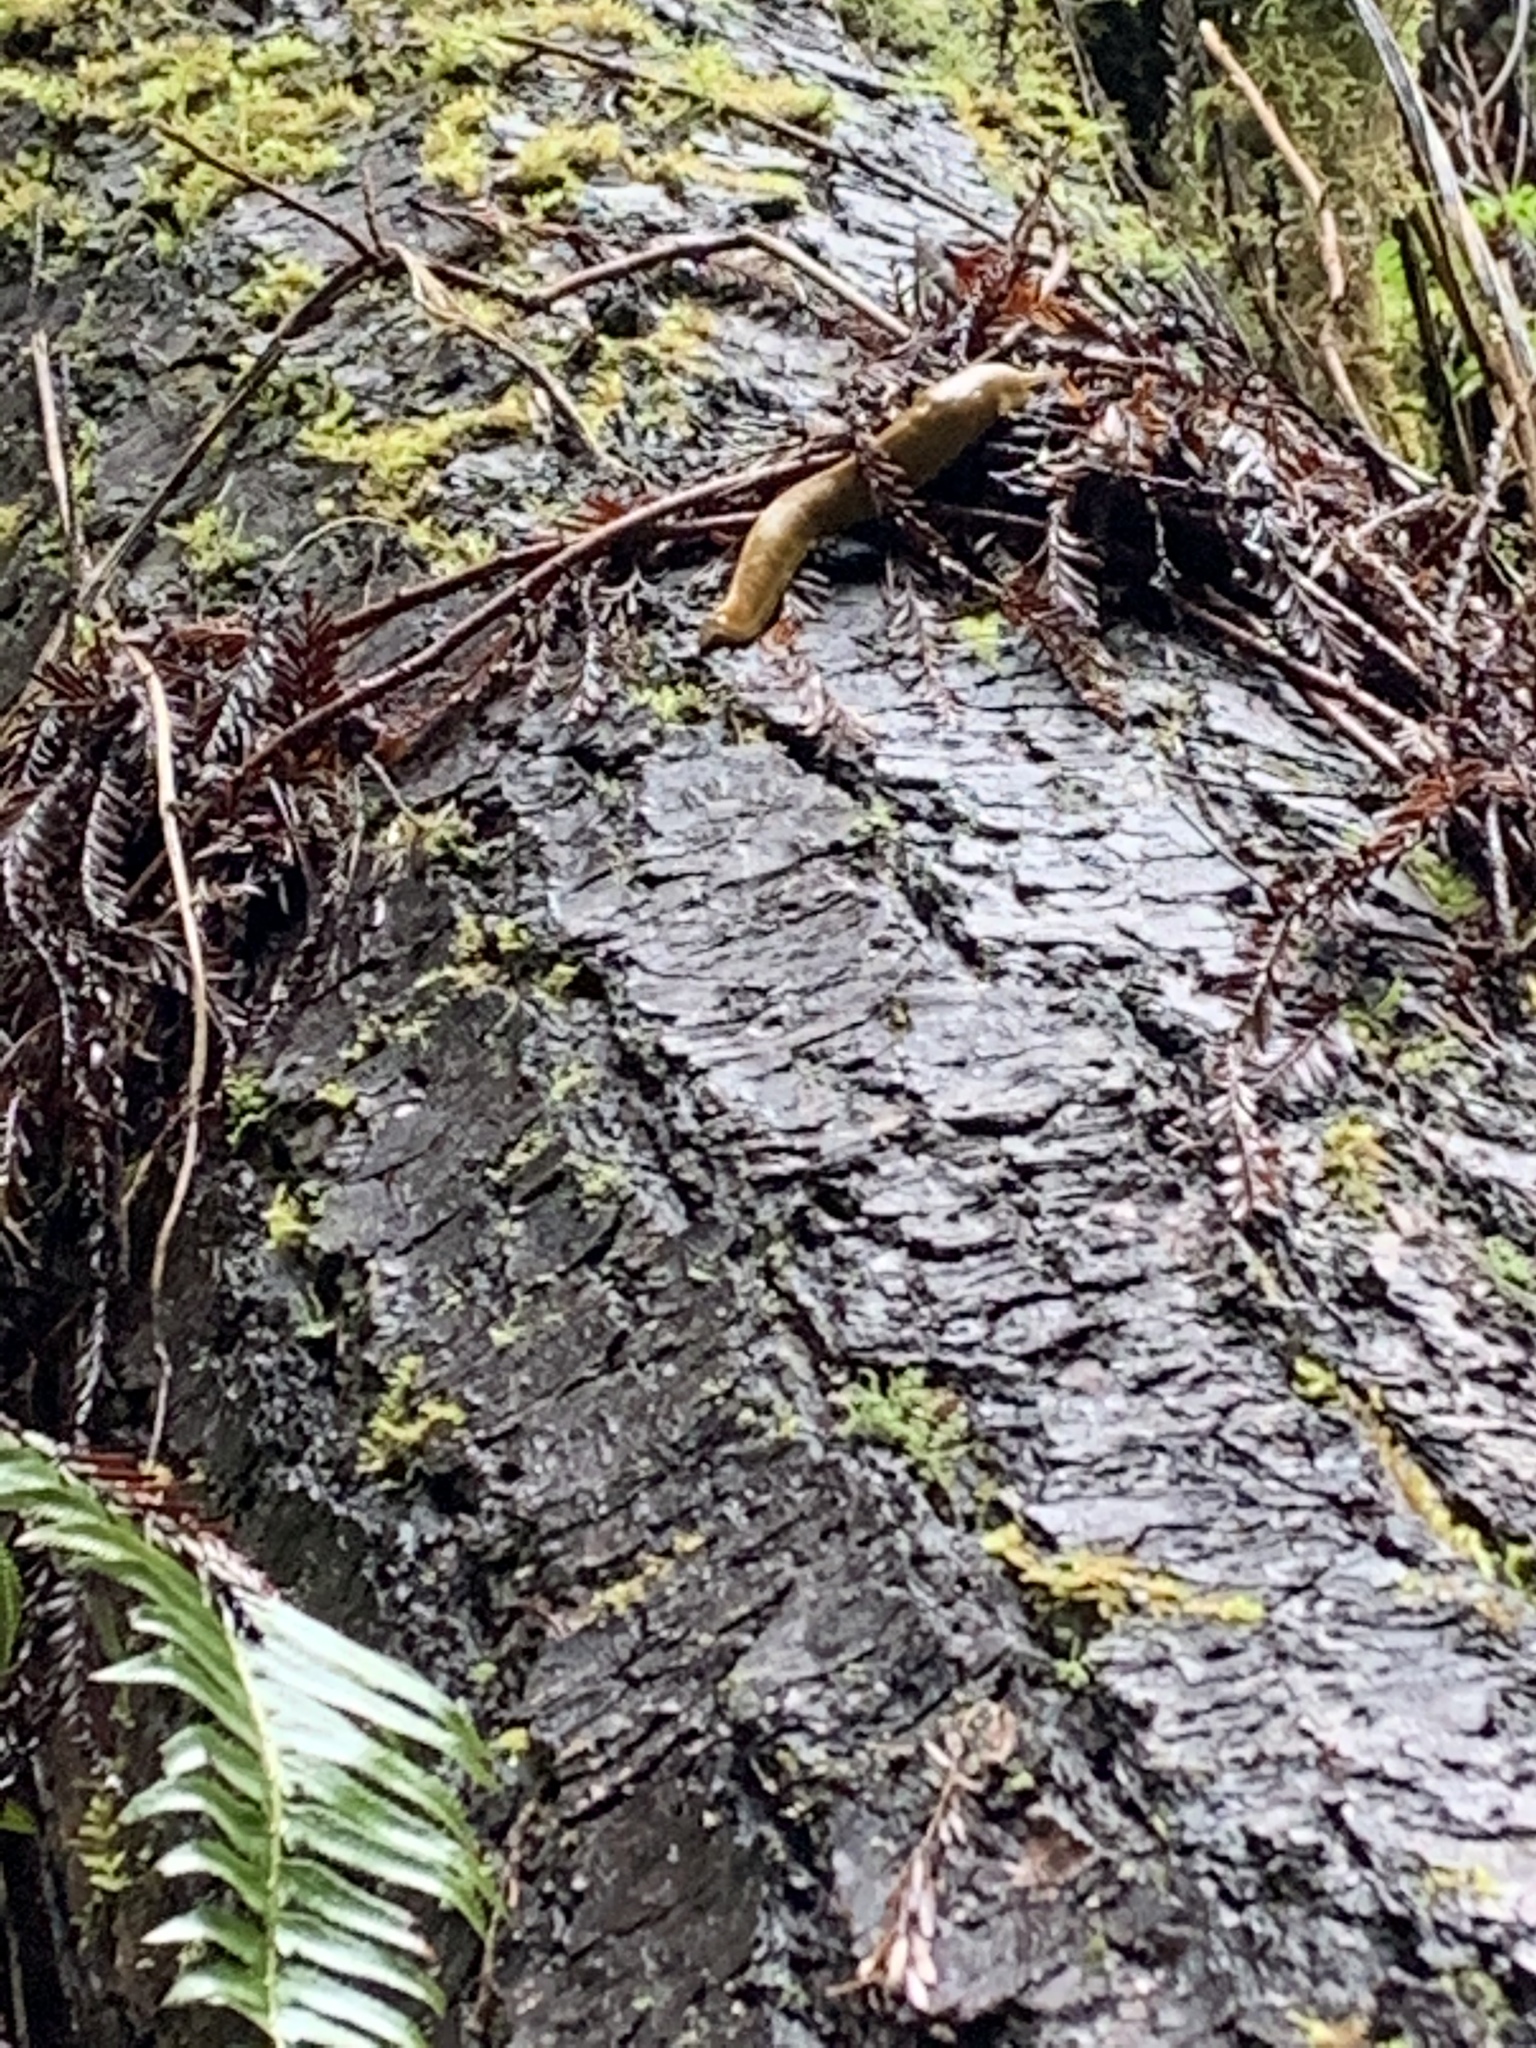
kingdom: Animalia
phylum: Mollusca
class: Gastropoda
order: Stylommatophora
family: Ariolimacidae
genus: Ariolimax
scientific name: Ariolimax buttoni
